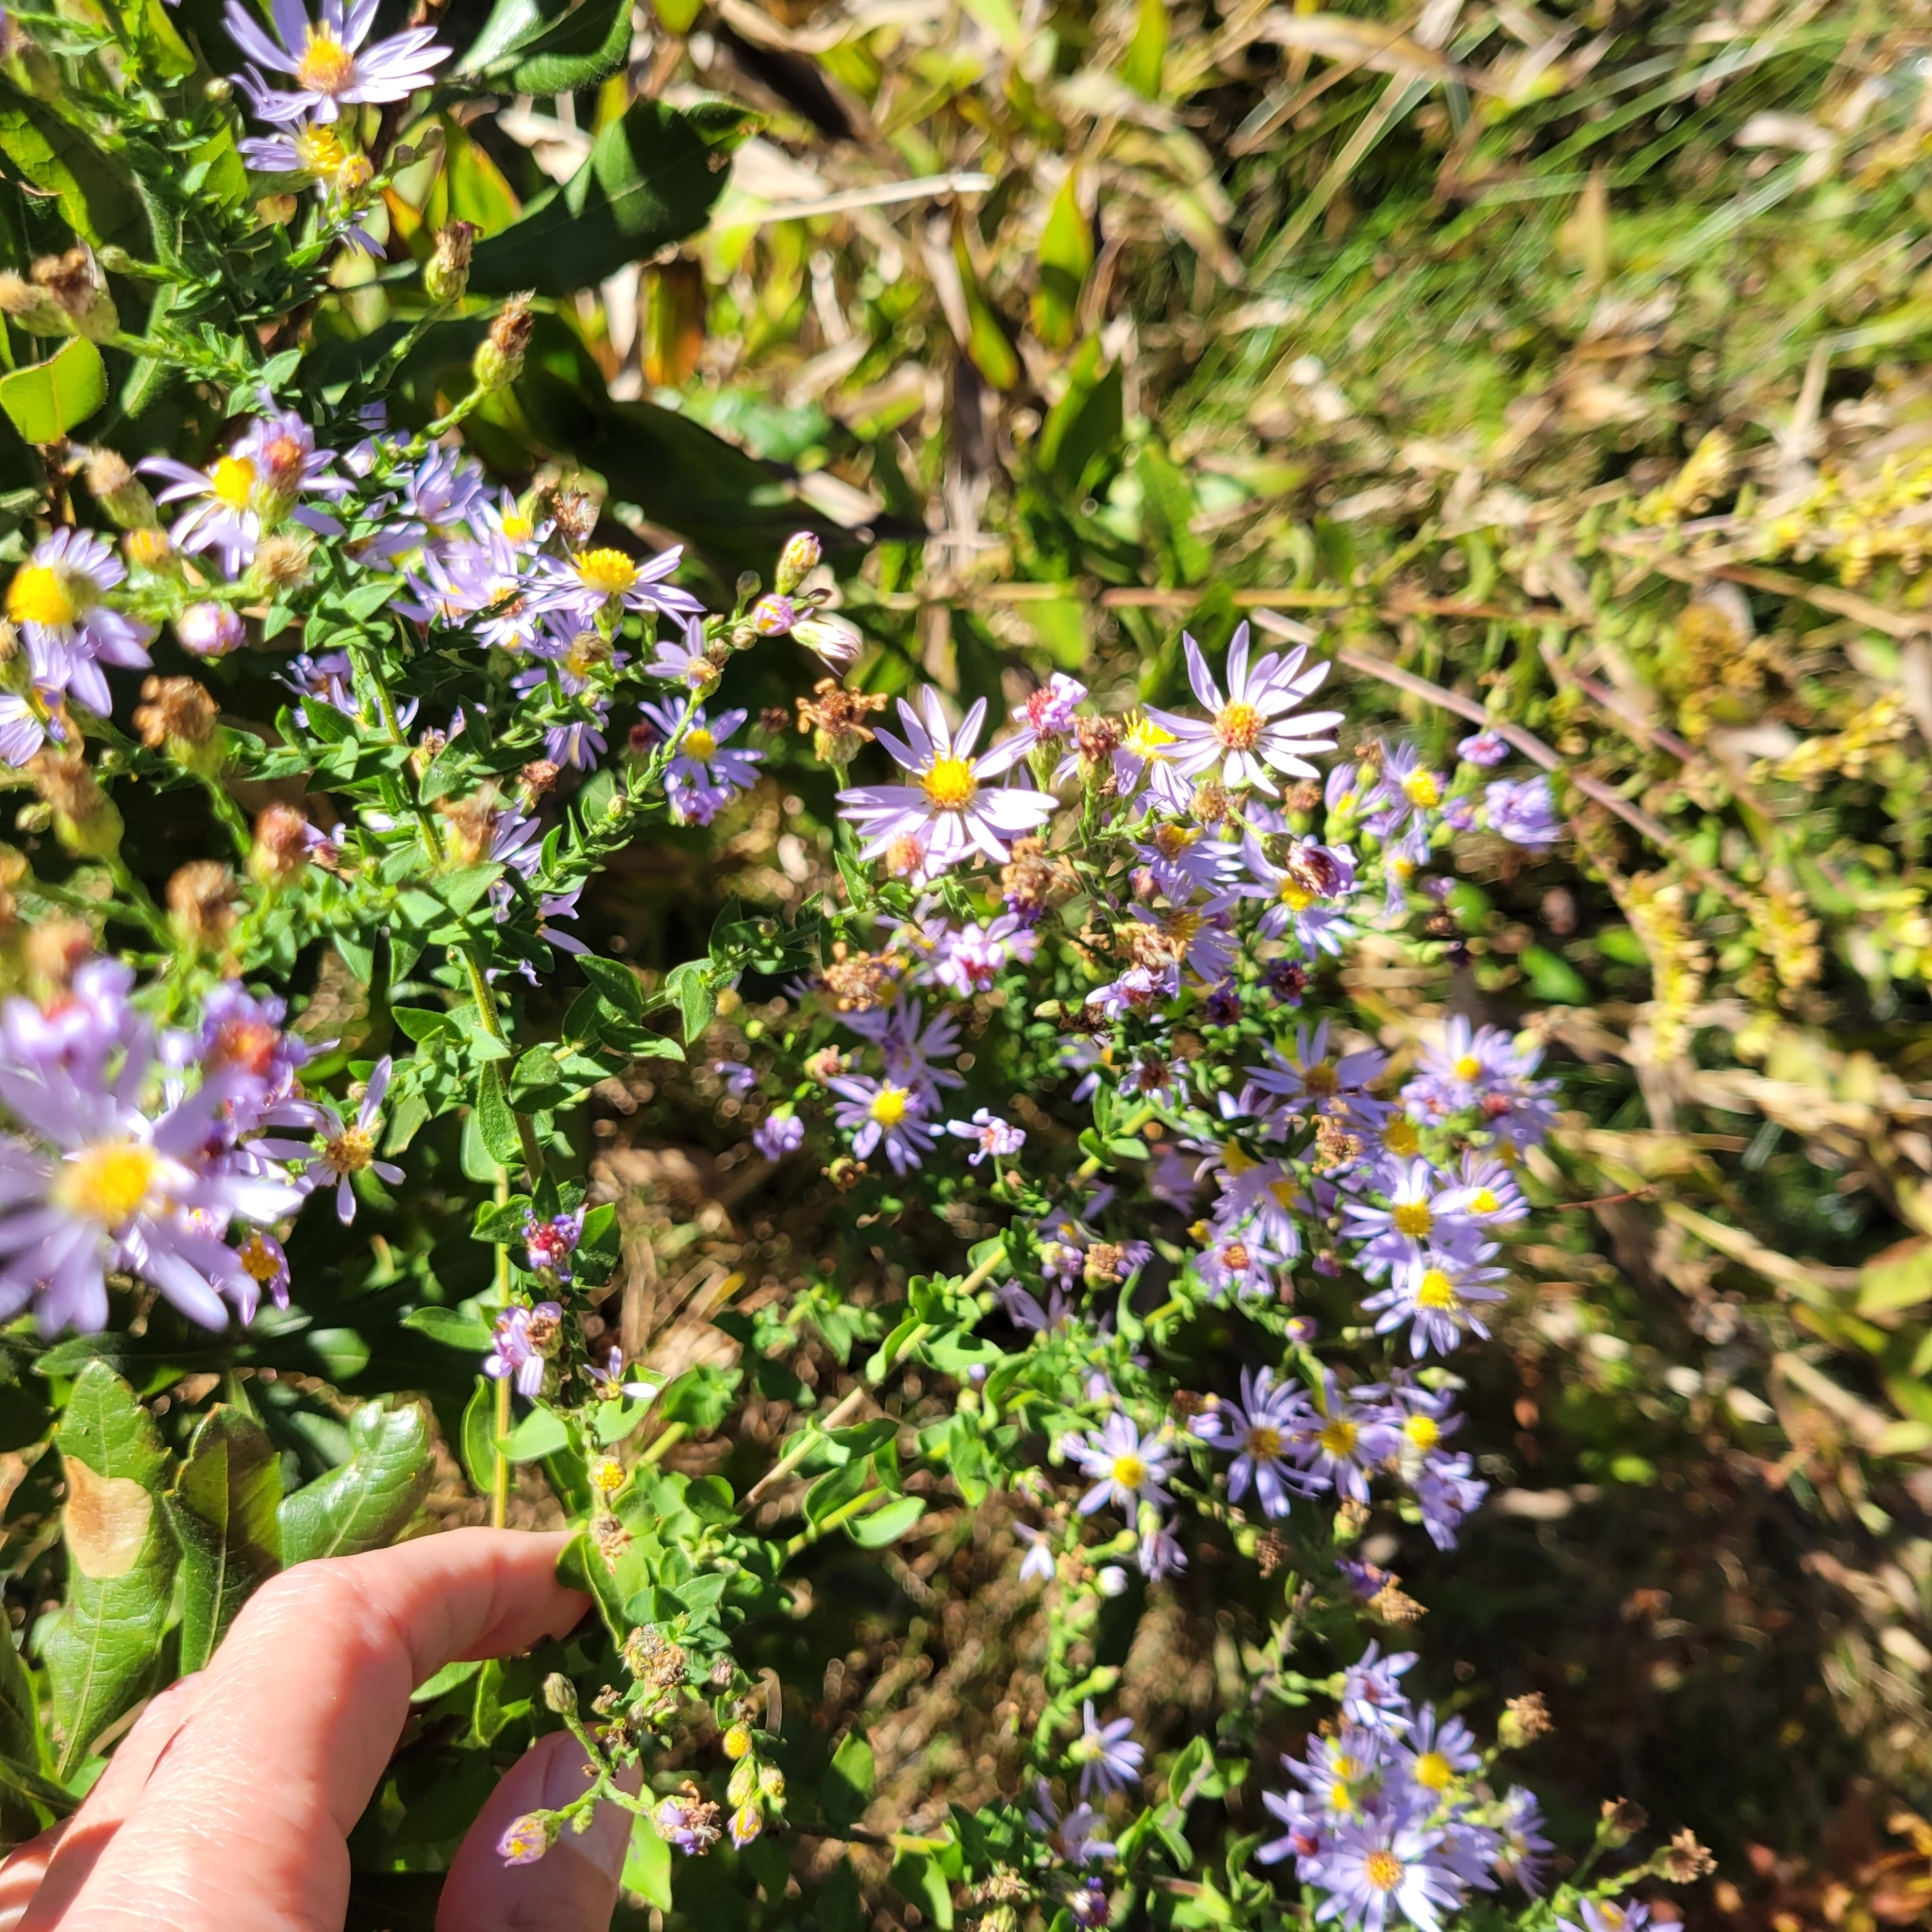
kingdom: Plantae
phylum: Tracheophyta
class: Magnoliopsida
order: Asterales
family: Asteraceae
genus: Symphyotrichum
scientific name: Symphyotrichum undulatum
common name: Clasping heart-leaf aster
